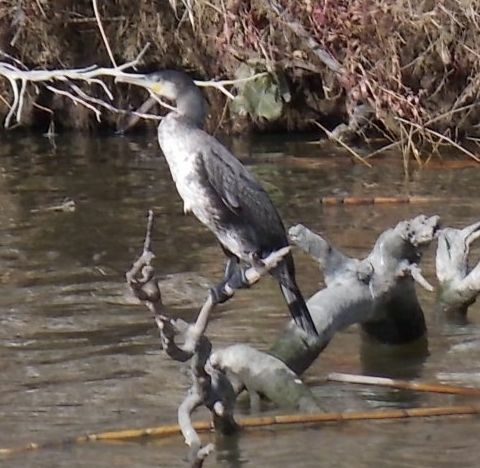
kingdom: Animalia
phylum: Chordata
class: Aves
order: Suliformes
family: Phalacrocoracidae
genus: Phalacrocorax
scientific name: Phalacrocorax carbo
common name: Great cormorant
